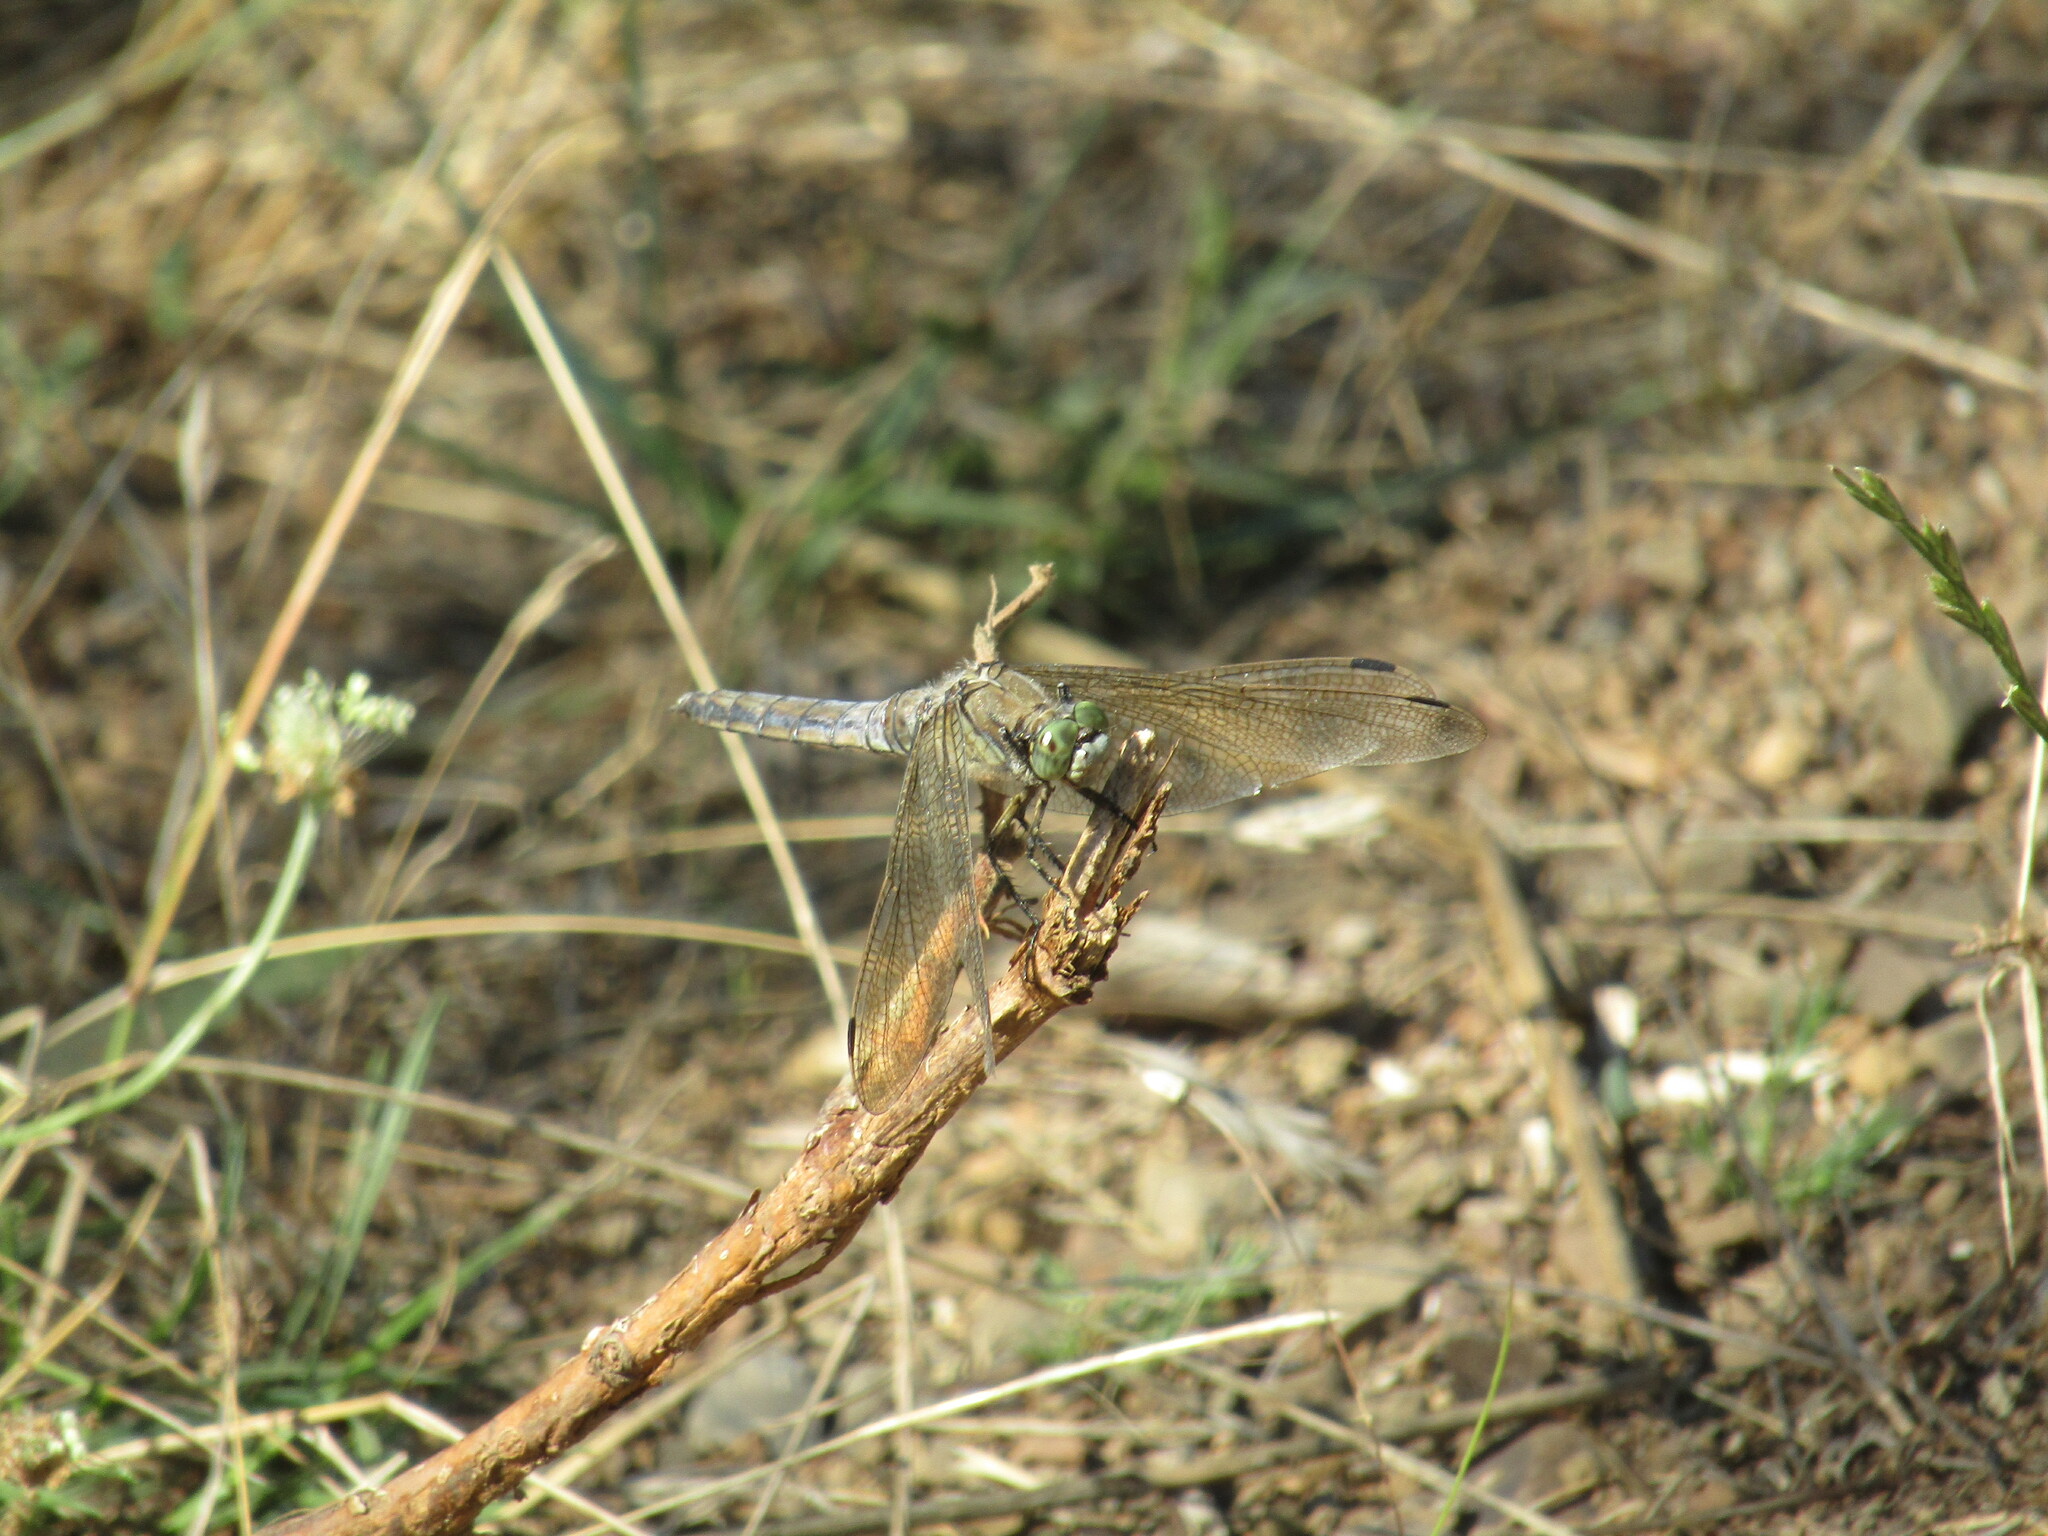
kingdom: Animalia
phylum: Arthropoda
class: Insecta
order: Odonata
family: Libellulidae
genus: Orthetrum
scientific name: Orthetrum cancellatum
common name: Black-tailed skimmer
